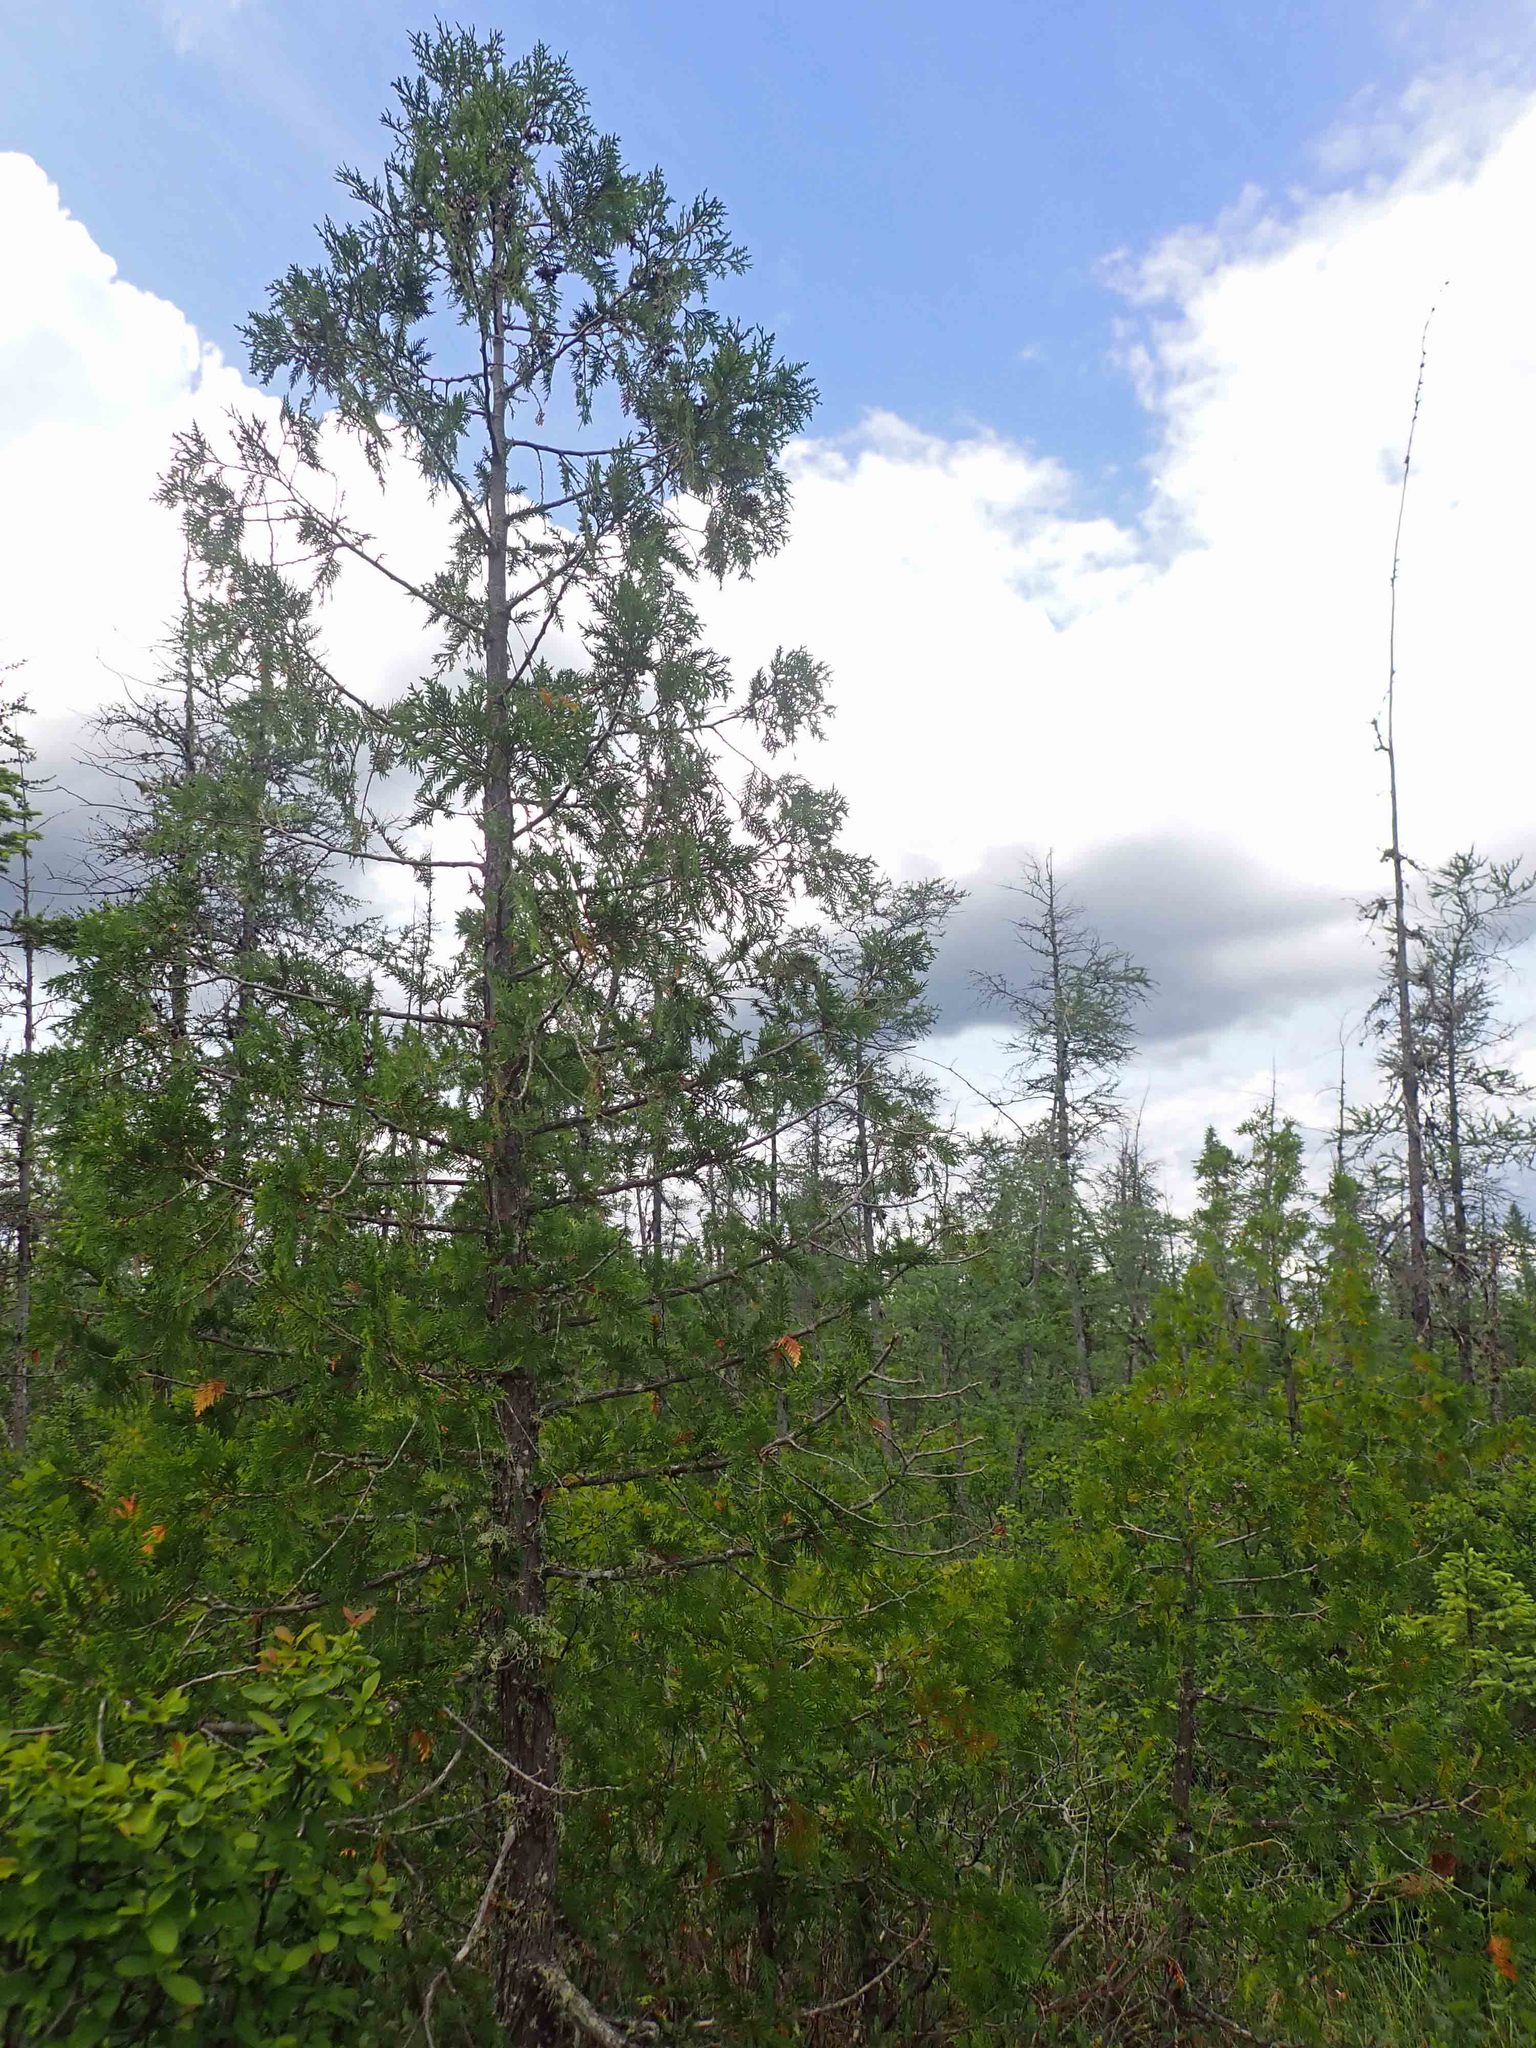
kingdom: Plantae
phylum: Tracheophyta
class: Pinopsida
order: Pinales
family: Cupressaceae
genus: Thuja
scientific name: Thuja occidentalis
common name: Northern white-cedar
